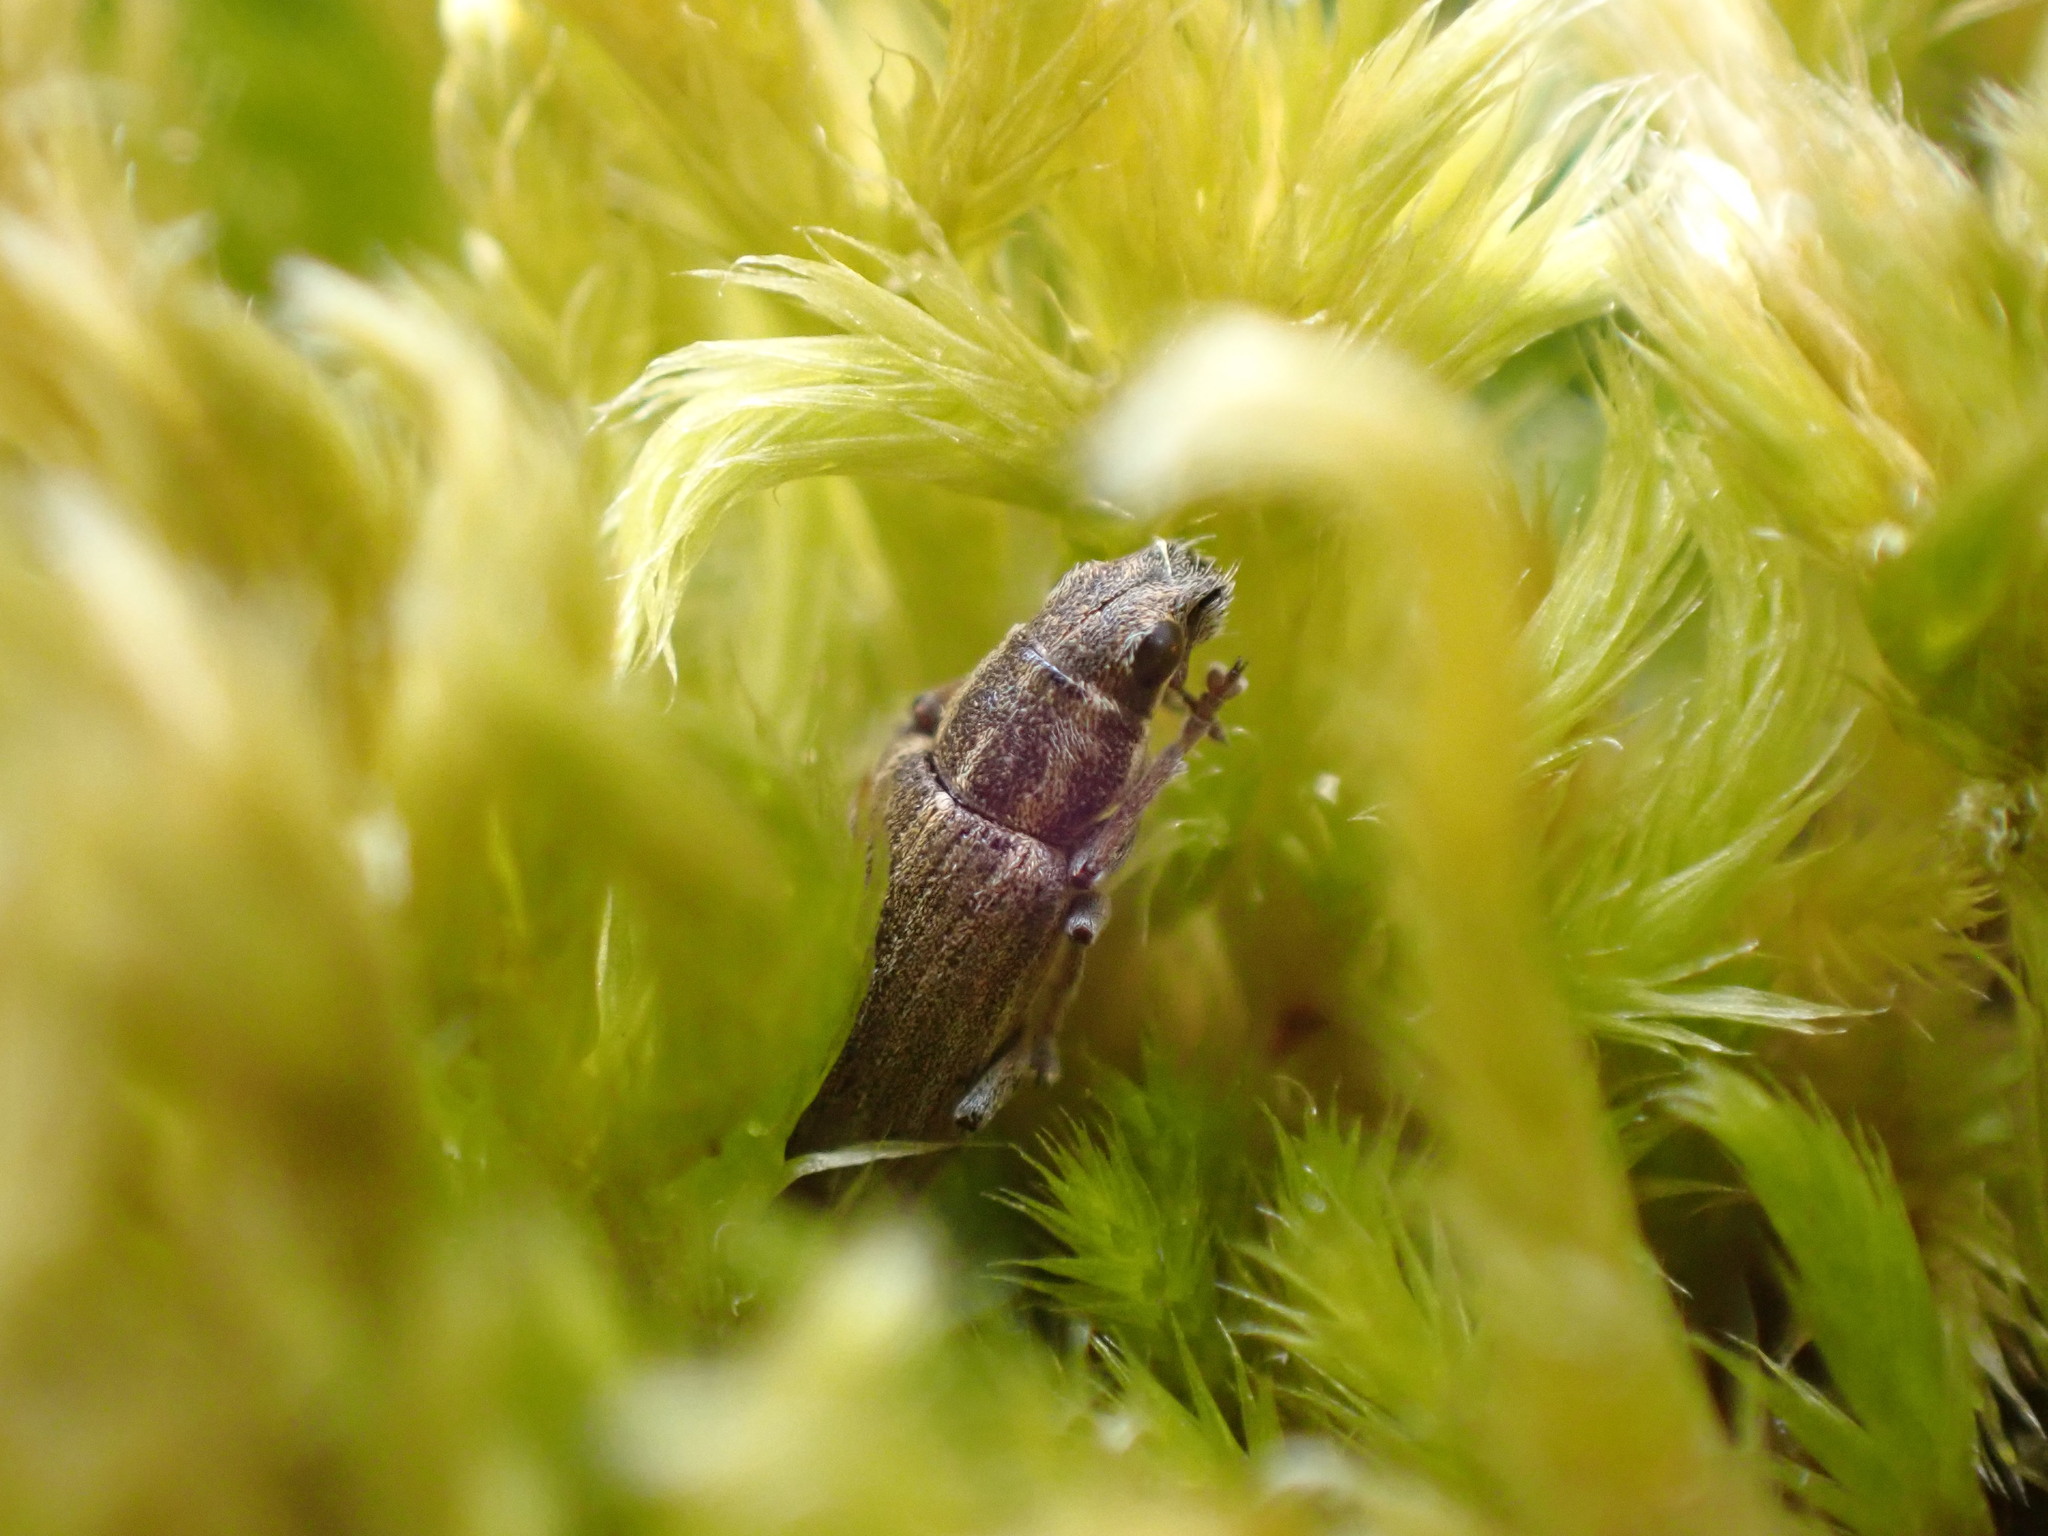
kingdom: Animalia
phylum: Arthropoda
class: Insecta
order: Coleoptera
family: Curculionidae
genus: Sitona
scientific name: Sitona lineatus
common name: Weevil
